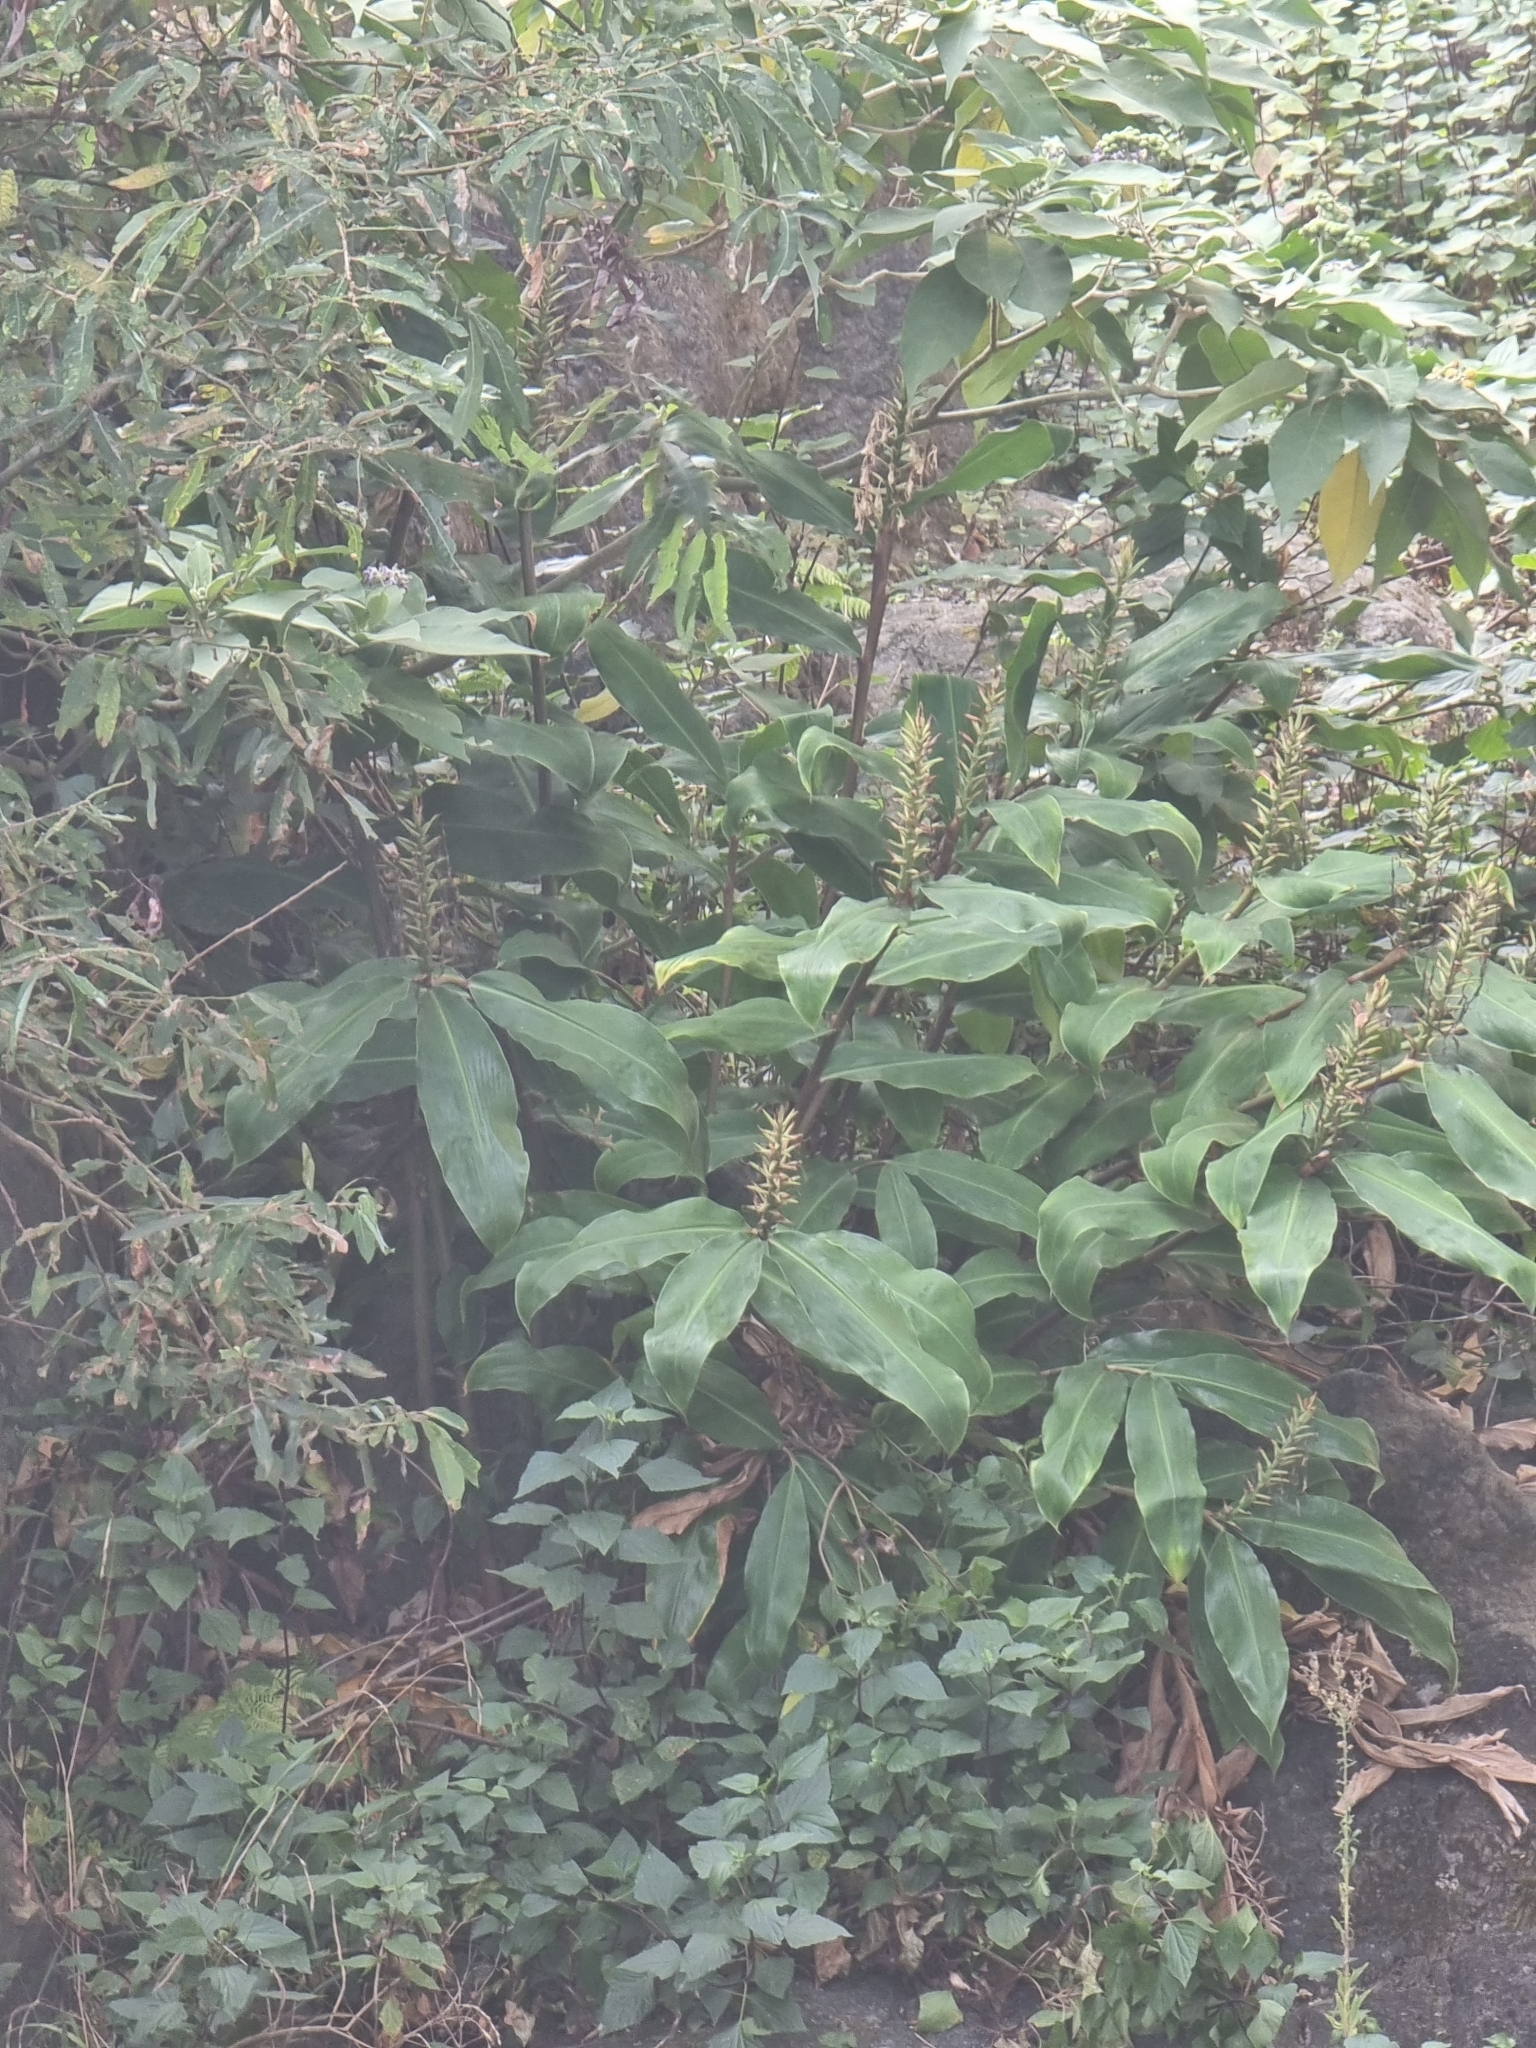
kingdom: Plantae
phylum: Tracheophyta
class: Liliopsida
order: Zingiberales
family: Zingiberaceae
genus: Hedychium
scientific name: Hedychium gardnerianum
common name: Himalayan ginger
